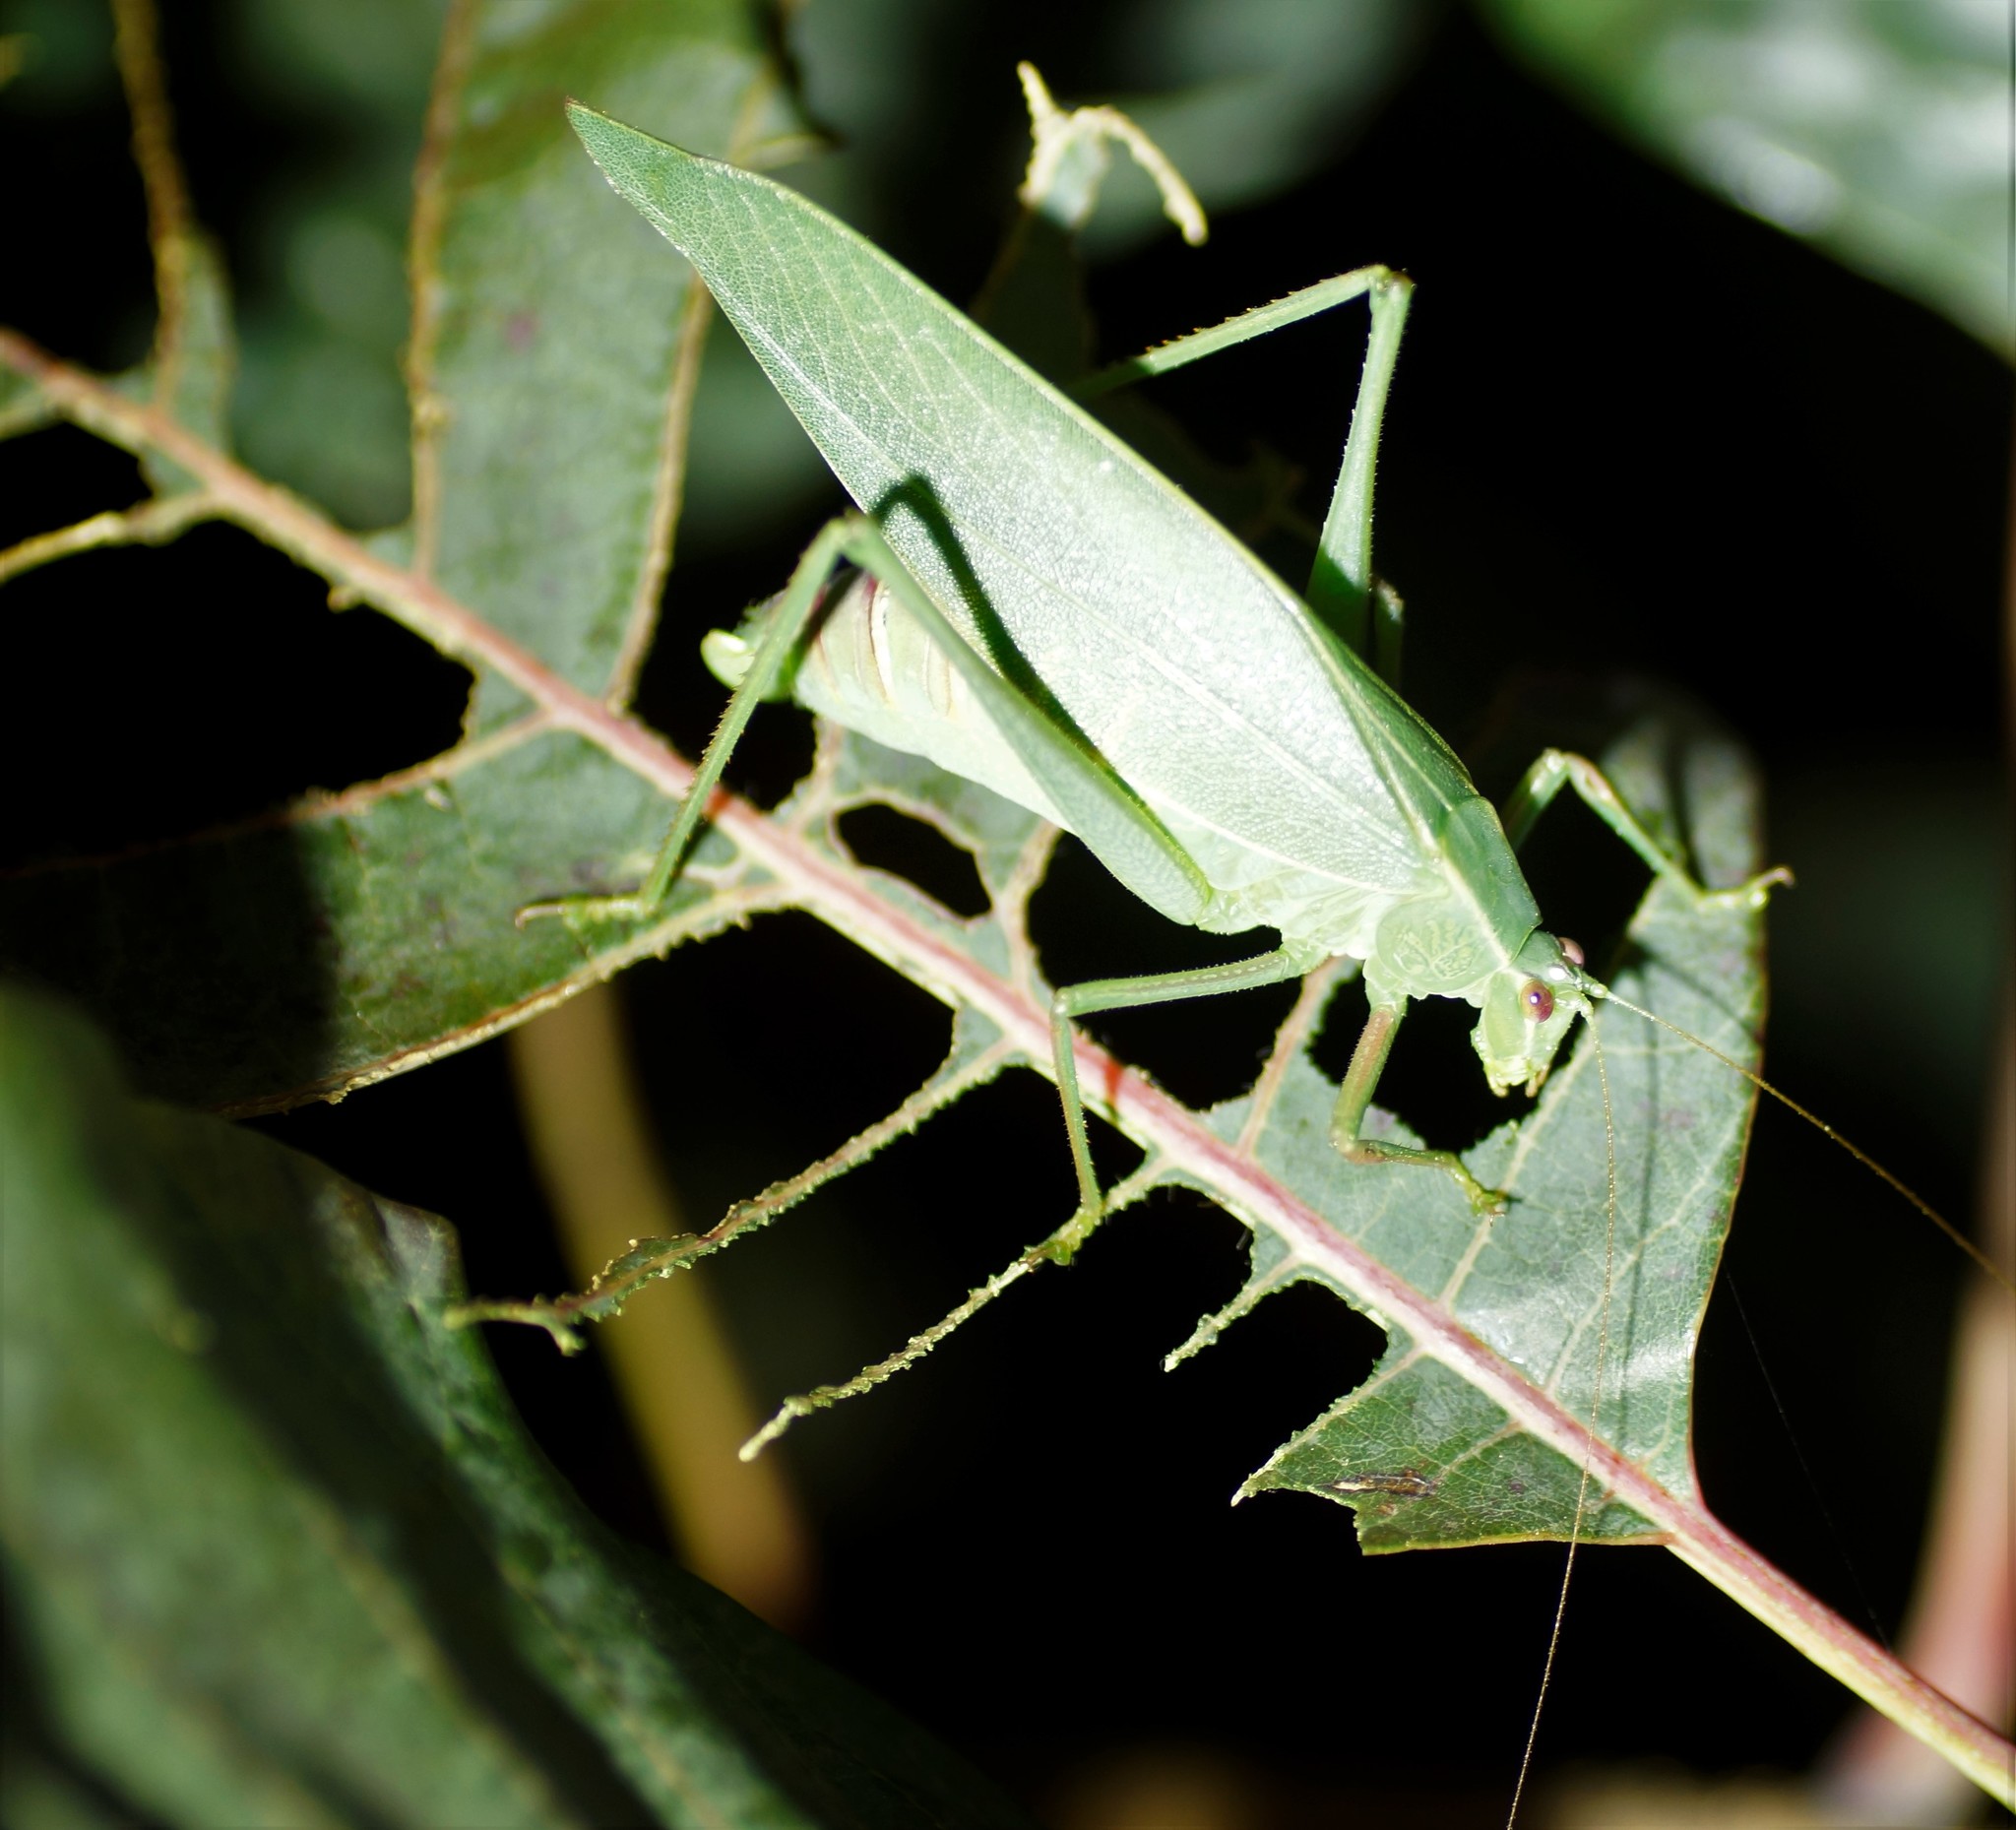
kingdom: Animalia
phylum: Arthropoda
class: Insecta
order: Orthoptera
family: Tettigoniidae
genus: Caedicia
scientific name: Caedicia simplex
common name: Common garden katydid
